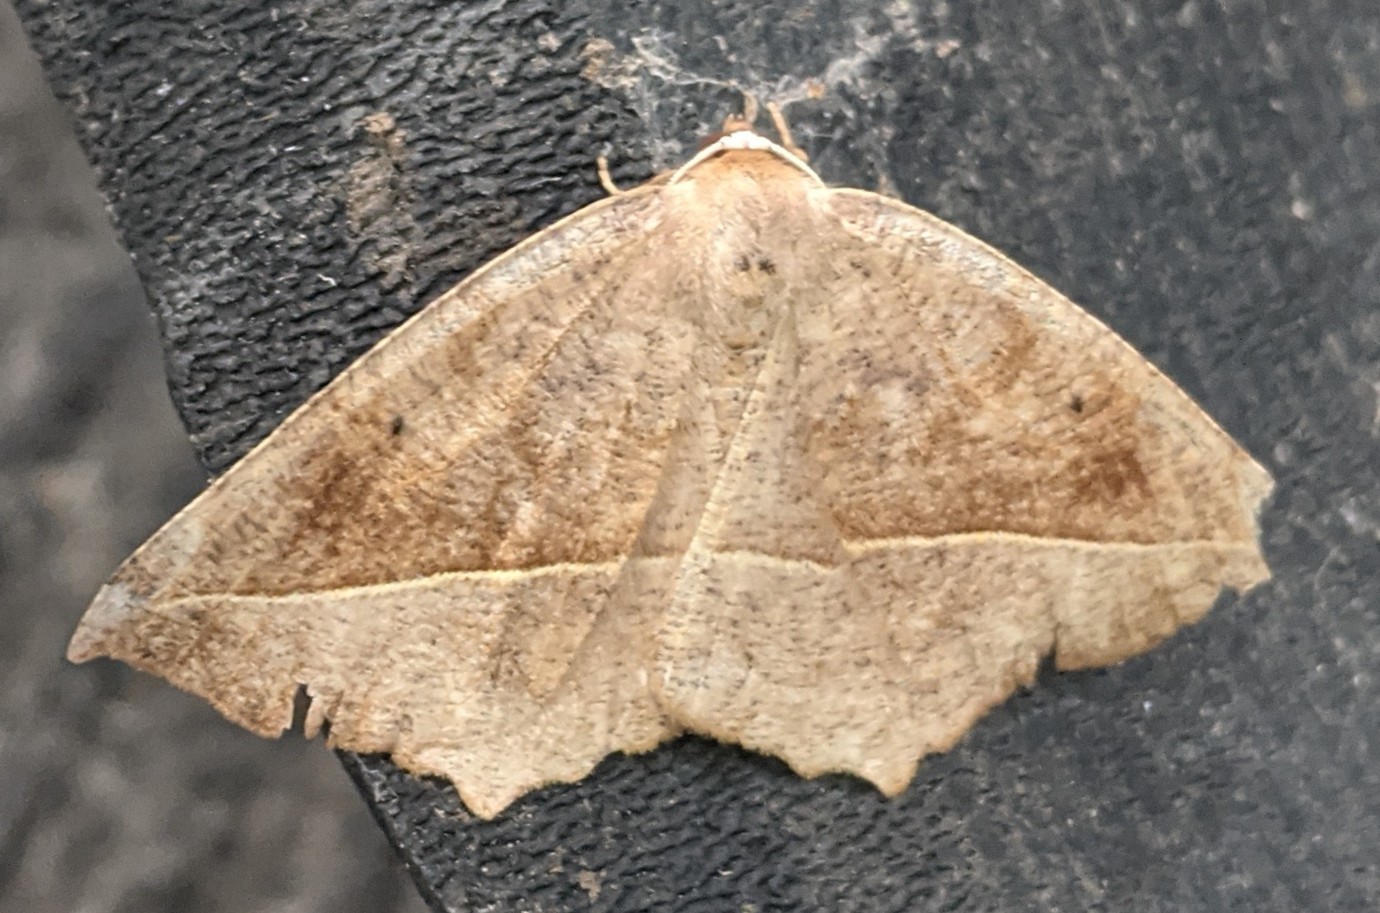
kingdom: Animalia
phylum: Arthropoda
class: Insecta
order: Lepidoptera
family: Geometridae
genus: Eutrapela
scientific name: Eutrapela clemataria
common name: Curved-toothed geometer
